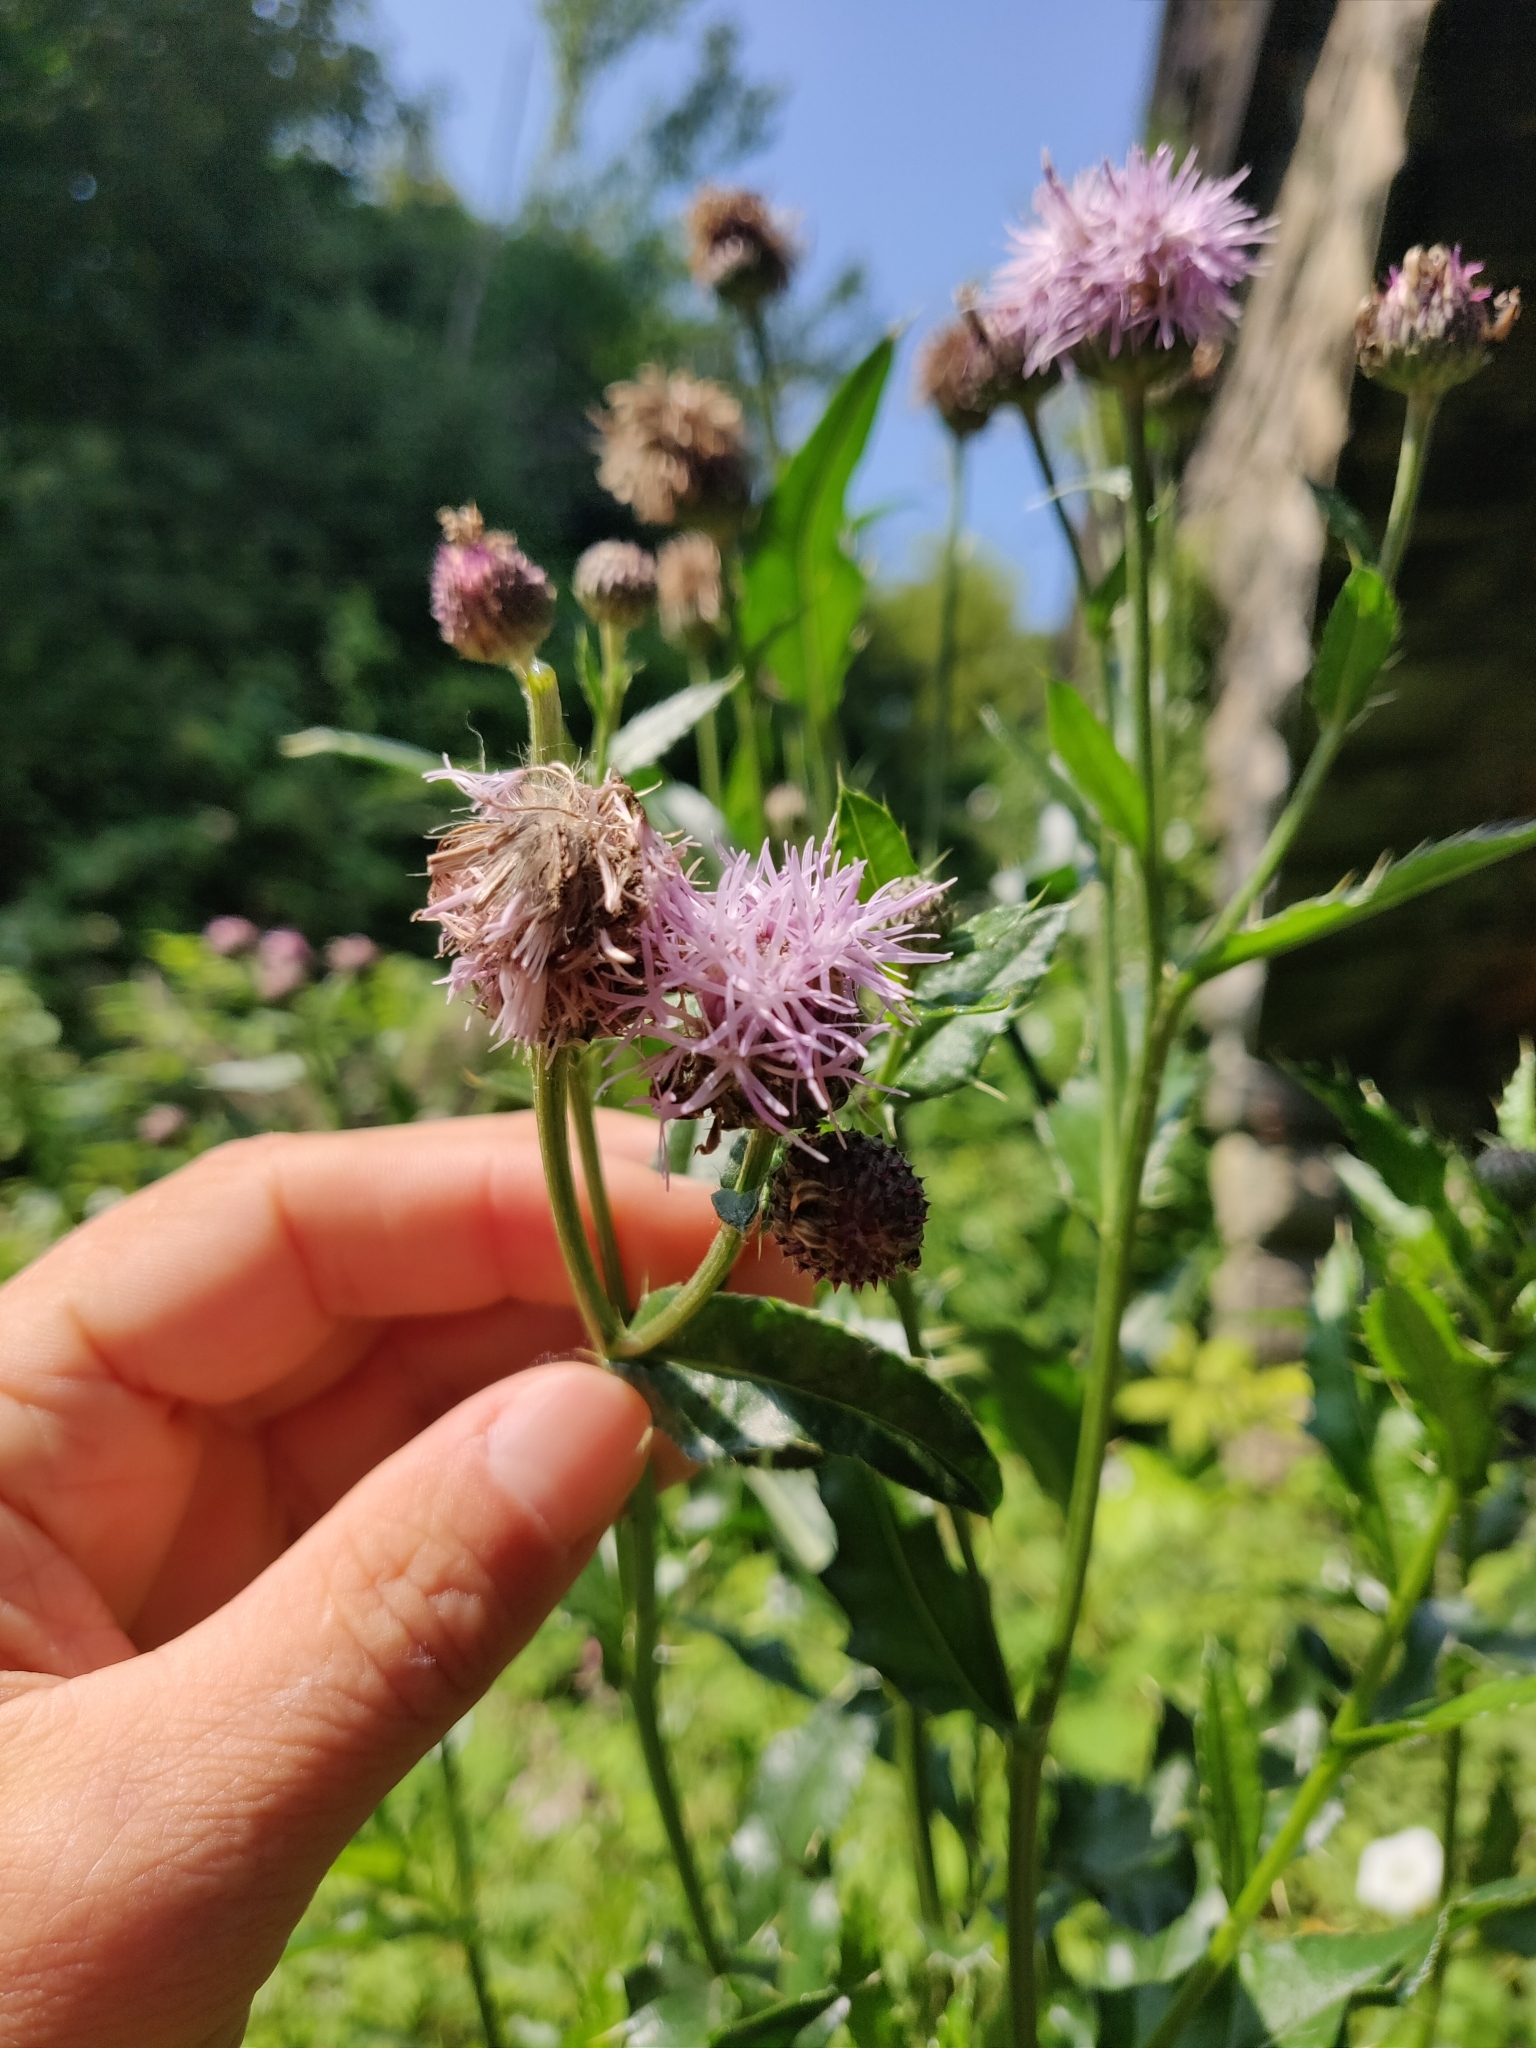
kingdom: Plantae
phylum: Tracheophyta
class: Magnoliopsida
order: Asterales
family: Asteraceae
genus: Cirsium
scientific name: Cirsium arvense
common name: Creeping thistle
